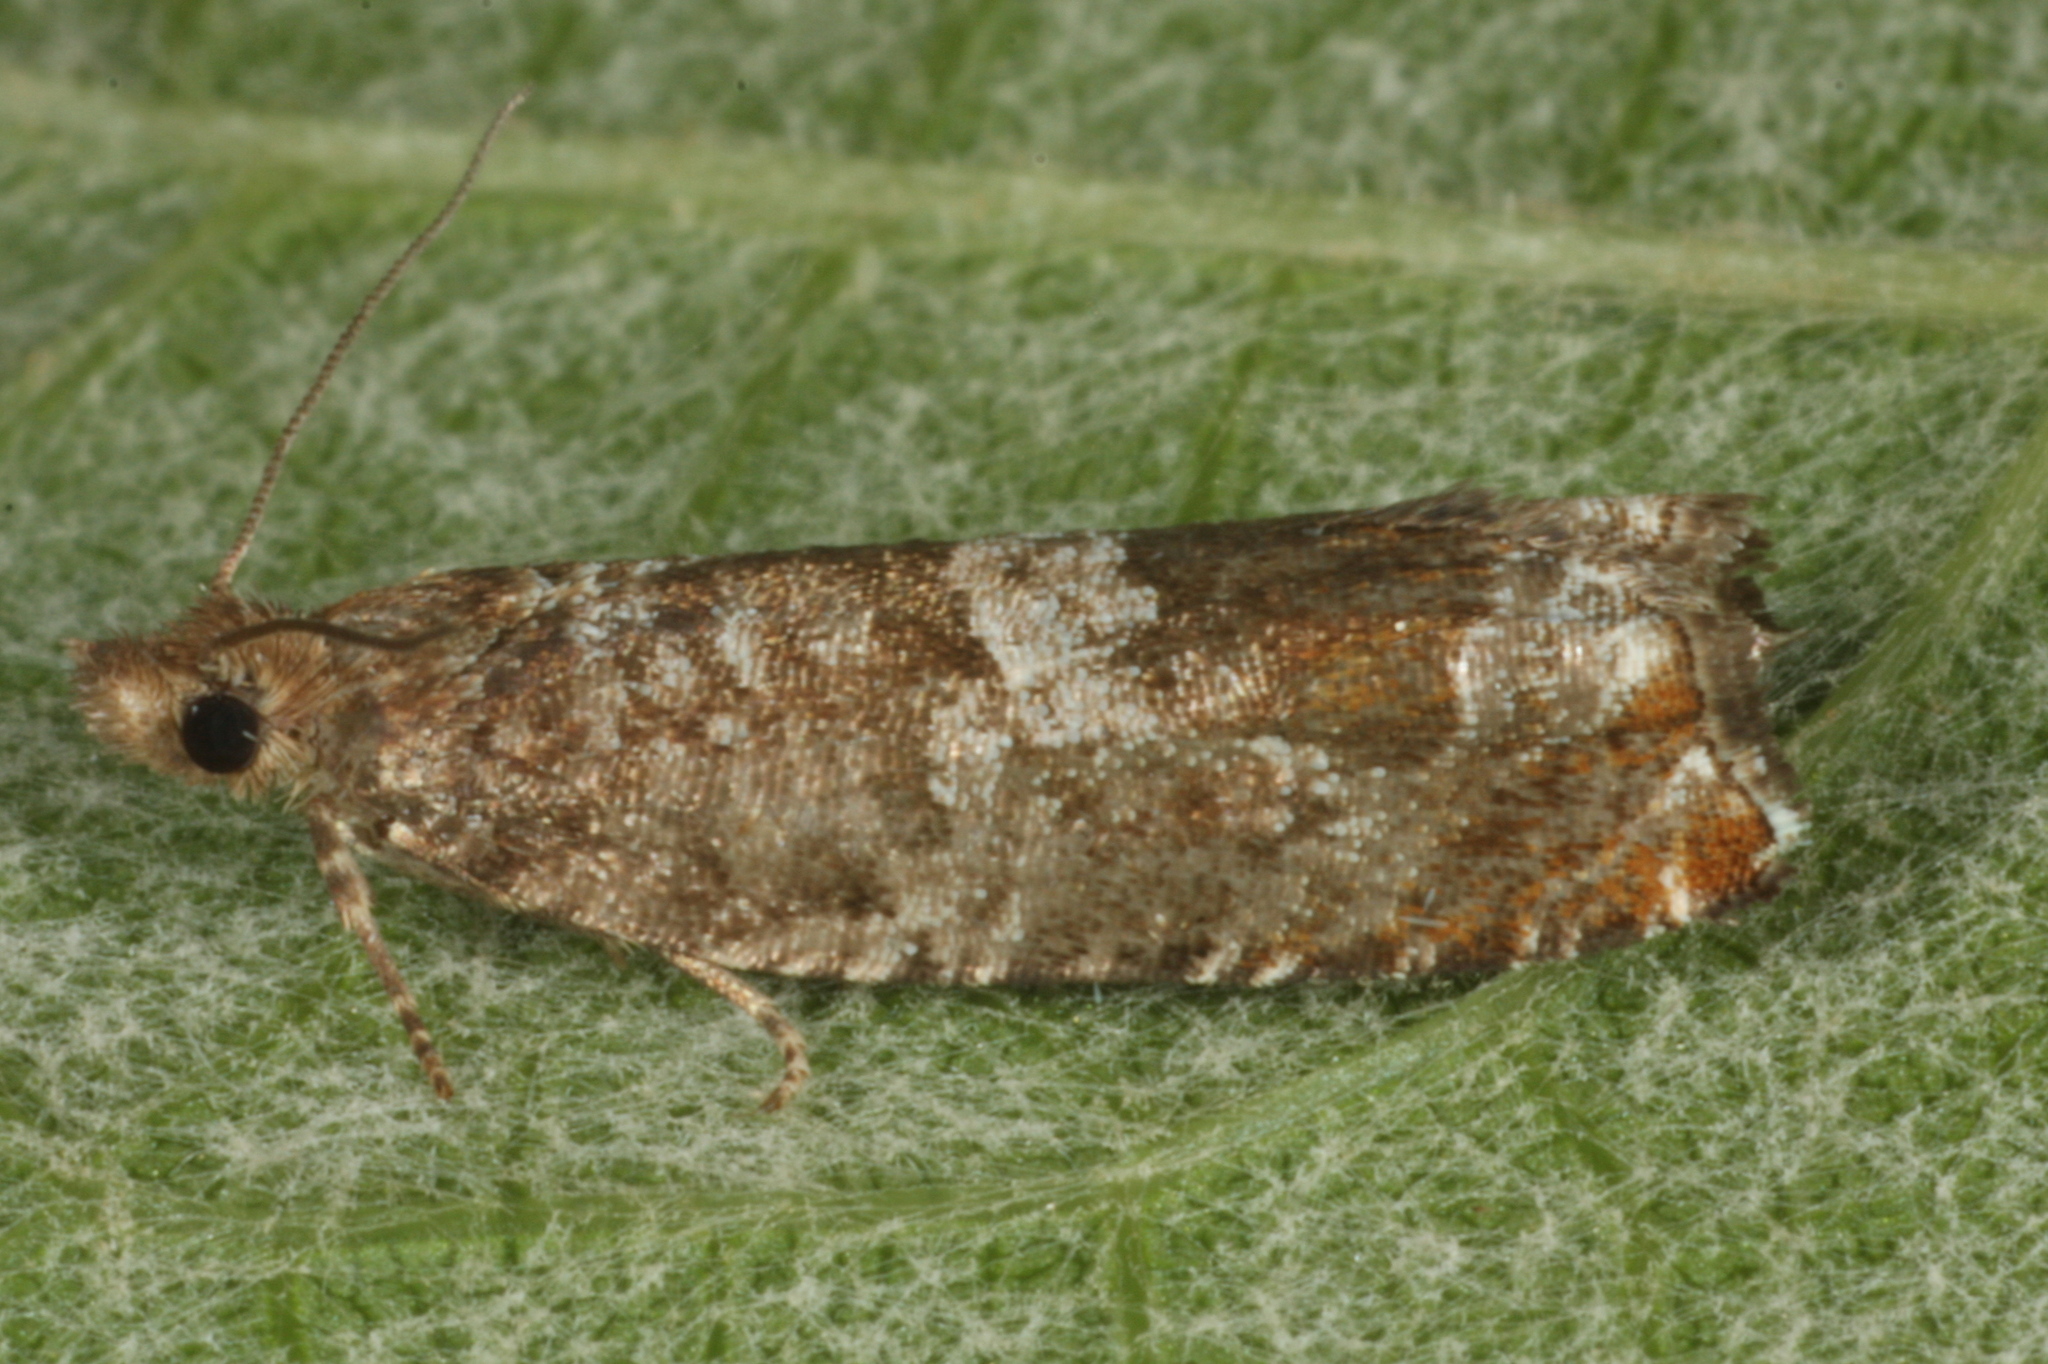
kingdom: Animalia
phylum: Arthropoda
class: Insecta
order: Lepidoptera
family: Tortricidae
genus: Ancylis
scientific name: Ancylis achatana
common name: Triangle-marked roller
